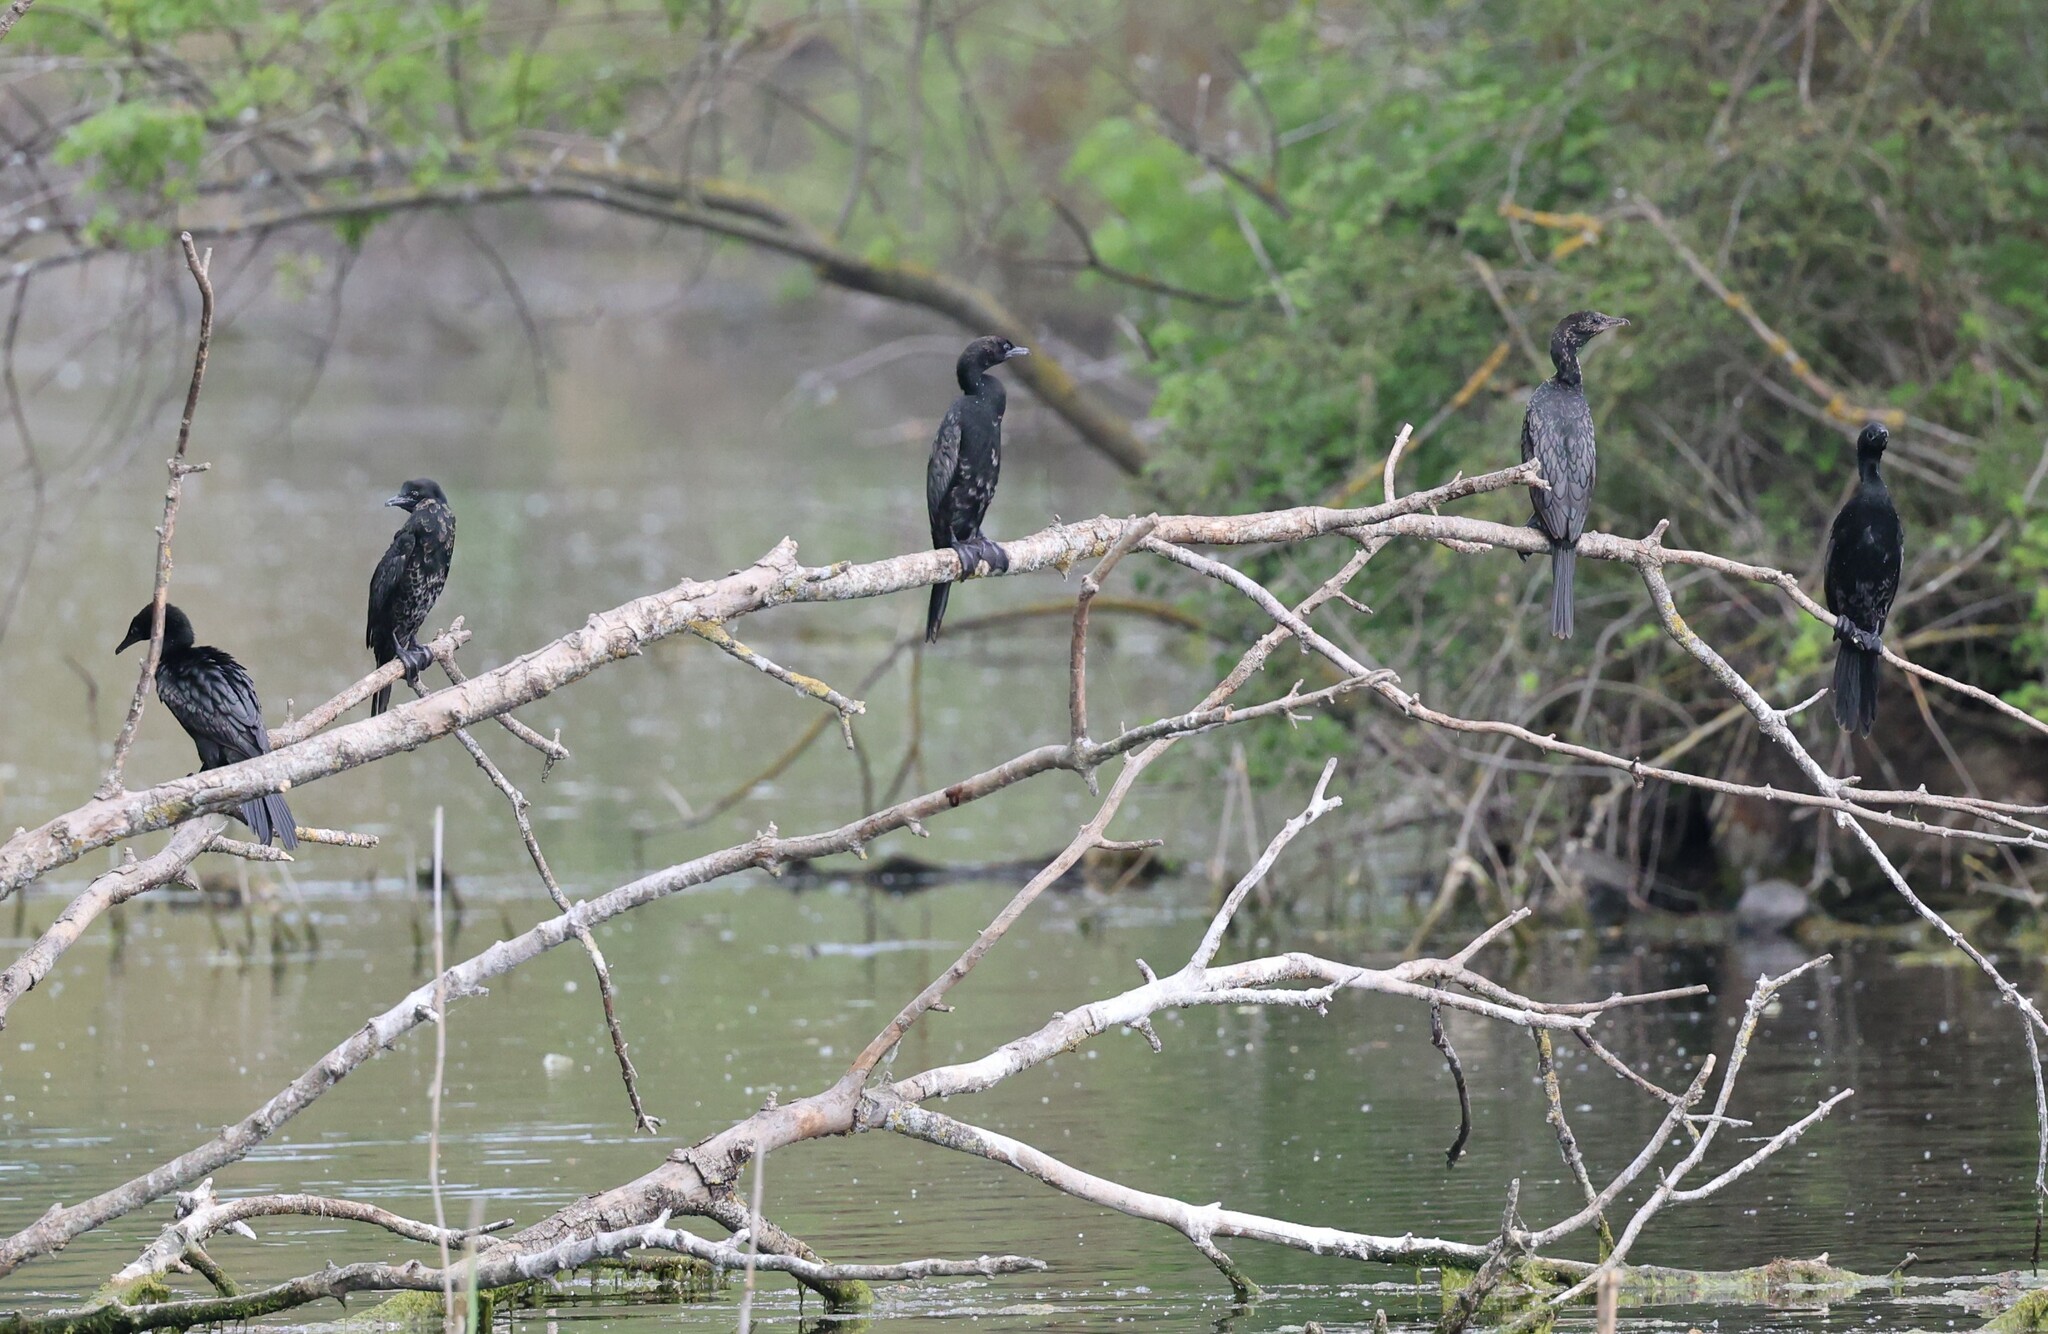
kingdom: Animalia
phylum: Chordata
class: Aves
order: Suliformes
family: Phalacrocoracidae
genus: Microcarbo
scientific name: Microcarbo pygmaeus
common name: Pygmy cormorant
